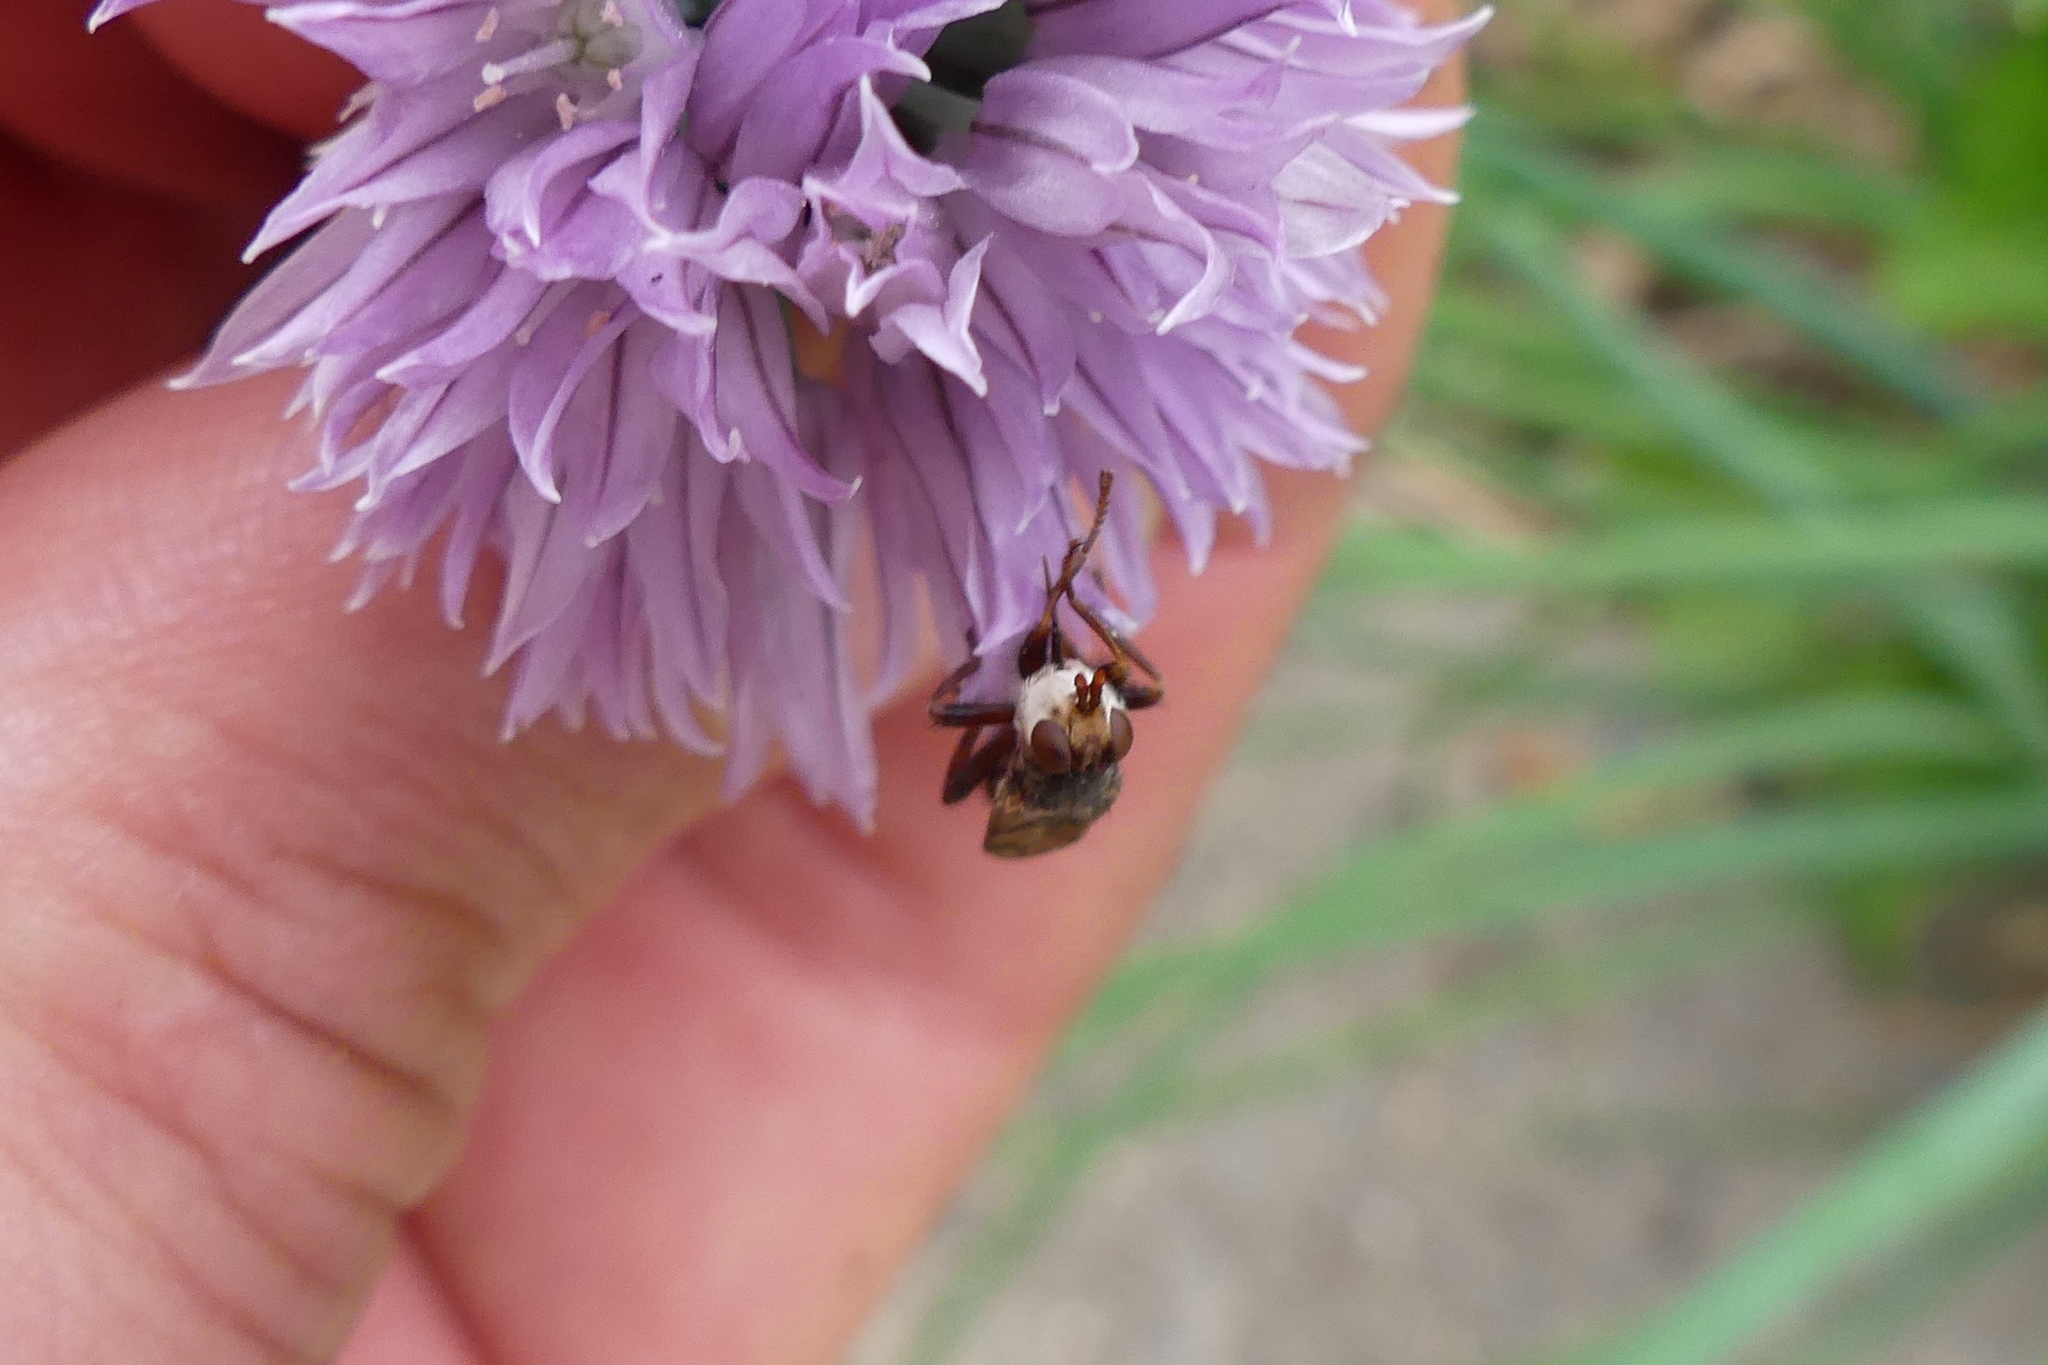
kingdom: Animalia
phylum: Arthropoda
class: Insecta
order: Diptera
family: Conopidae
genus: Myopa
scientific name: Myopa vicaria
